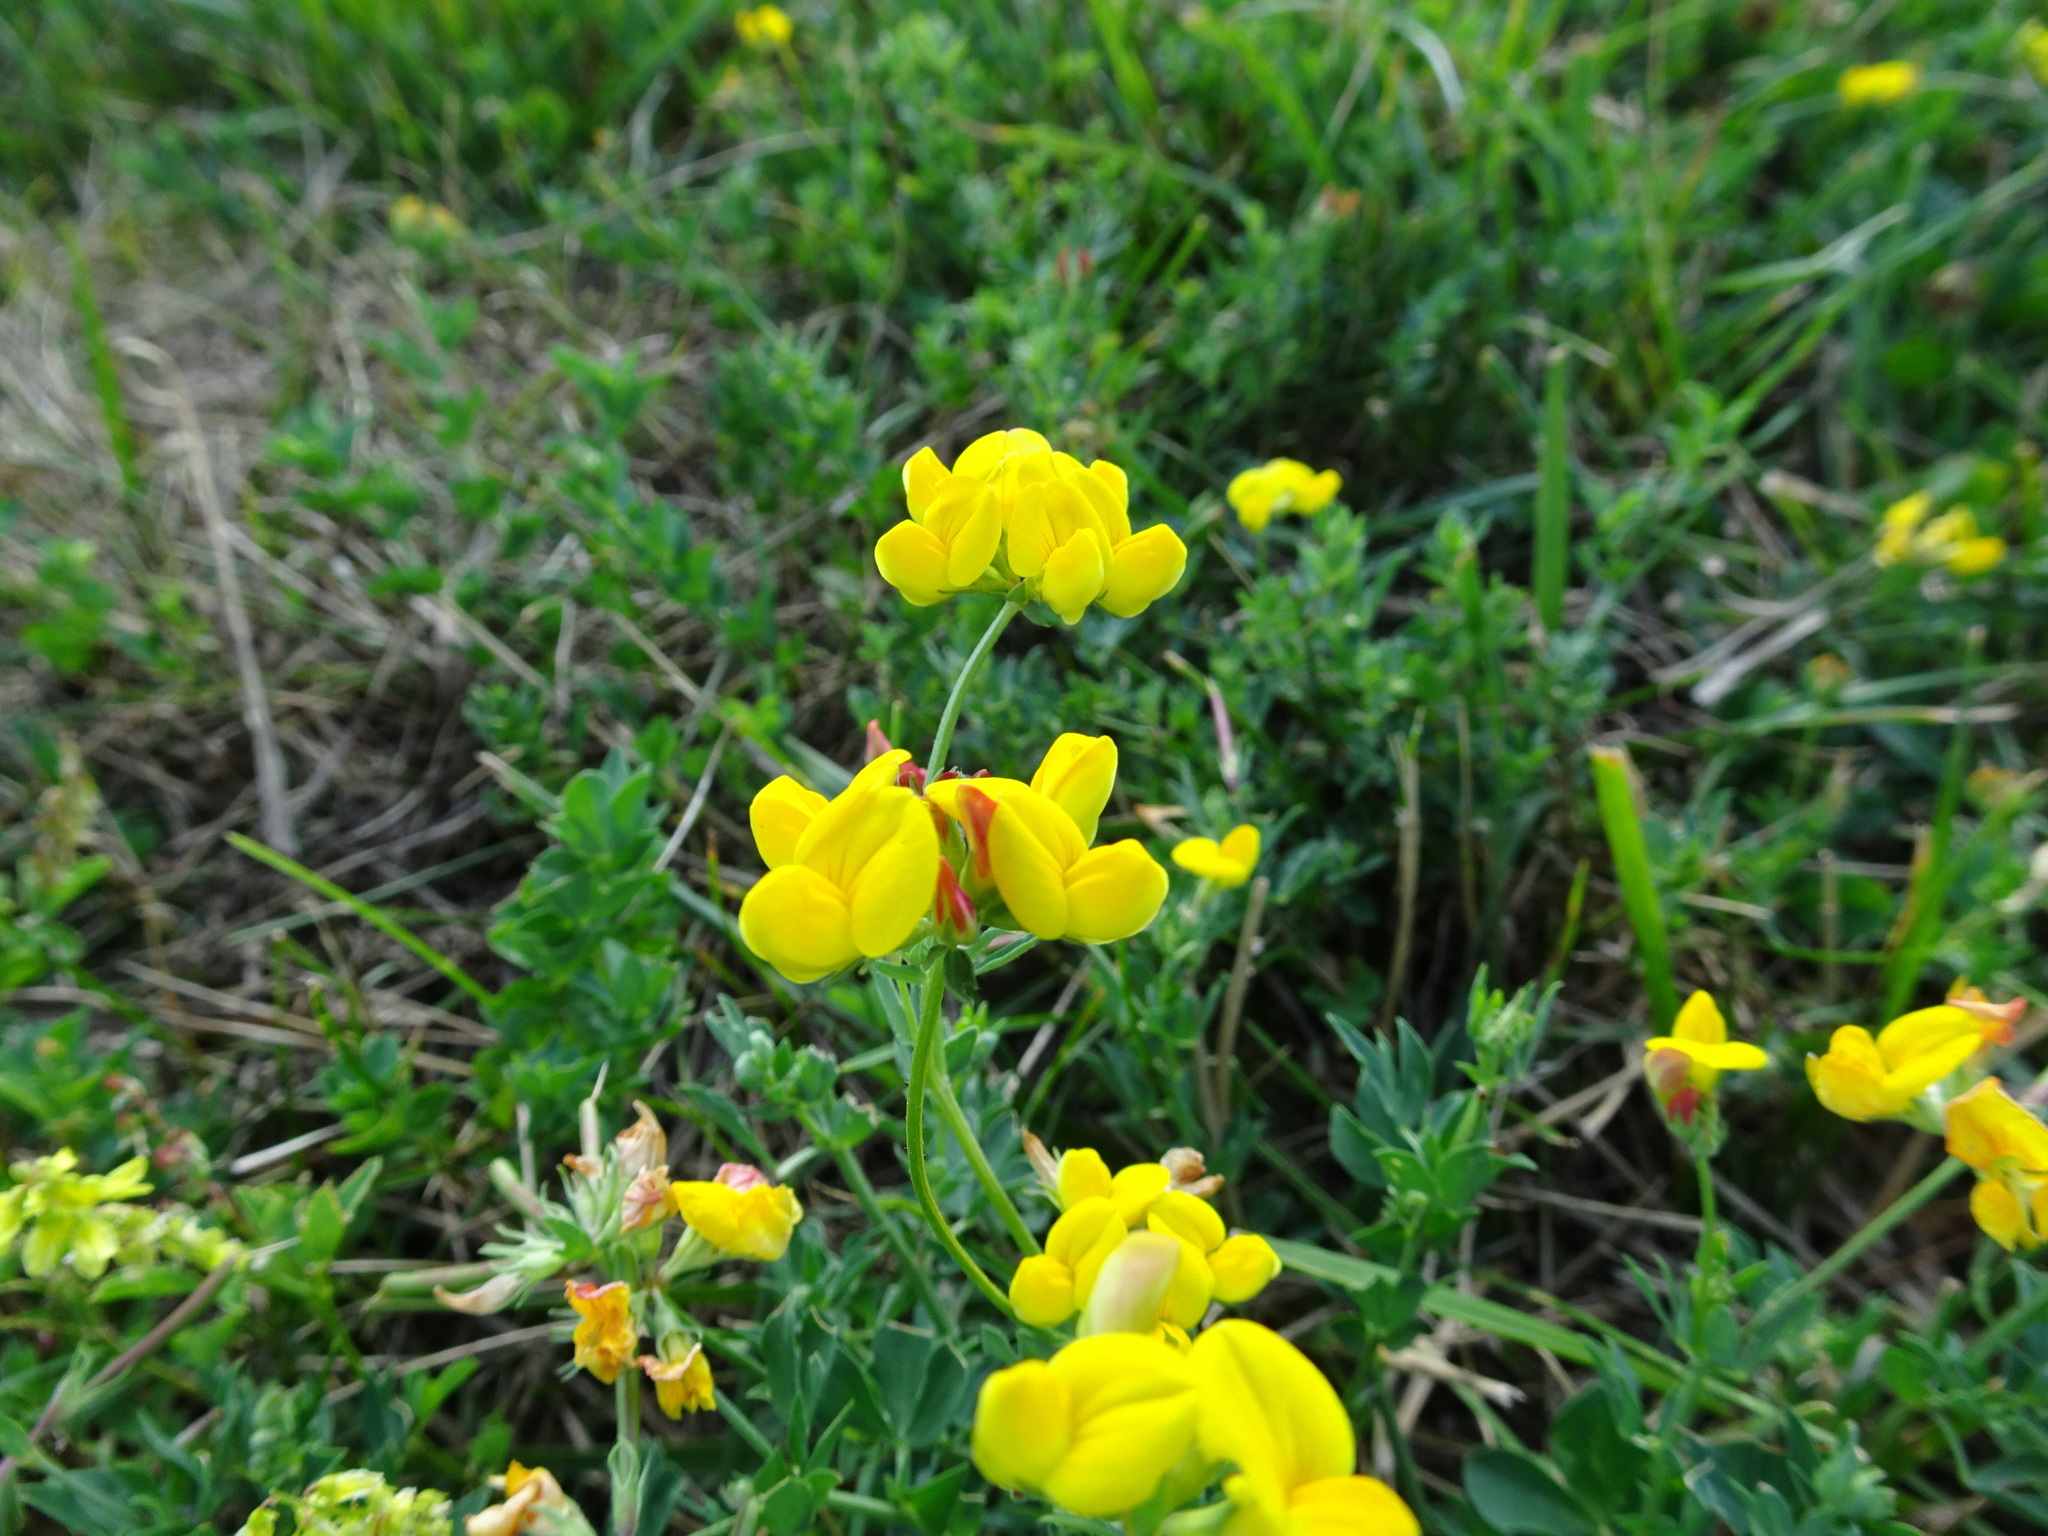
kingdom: Plantae
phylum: Tracheophyta
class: Magnoliopsida
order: Fabales
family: Fabaceae
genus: Lotus
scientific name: Lotus corniculatus
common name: Common bird's-foot-trefoil
